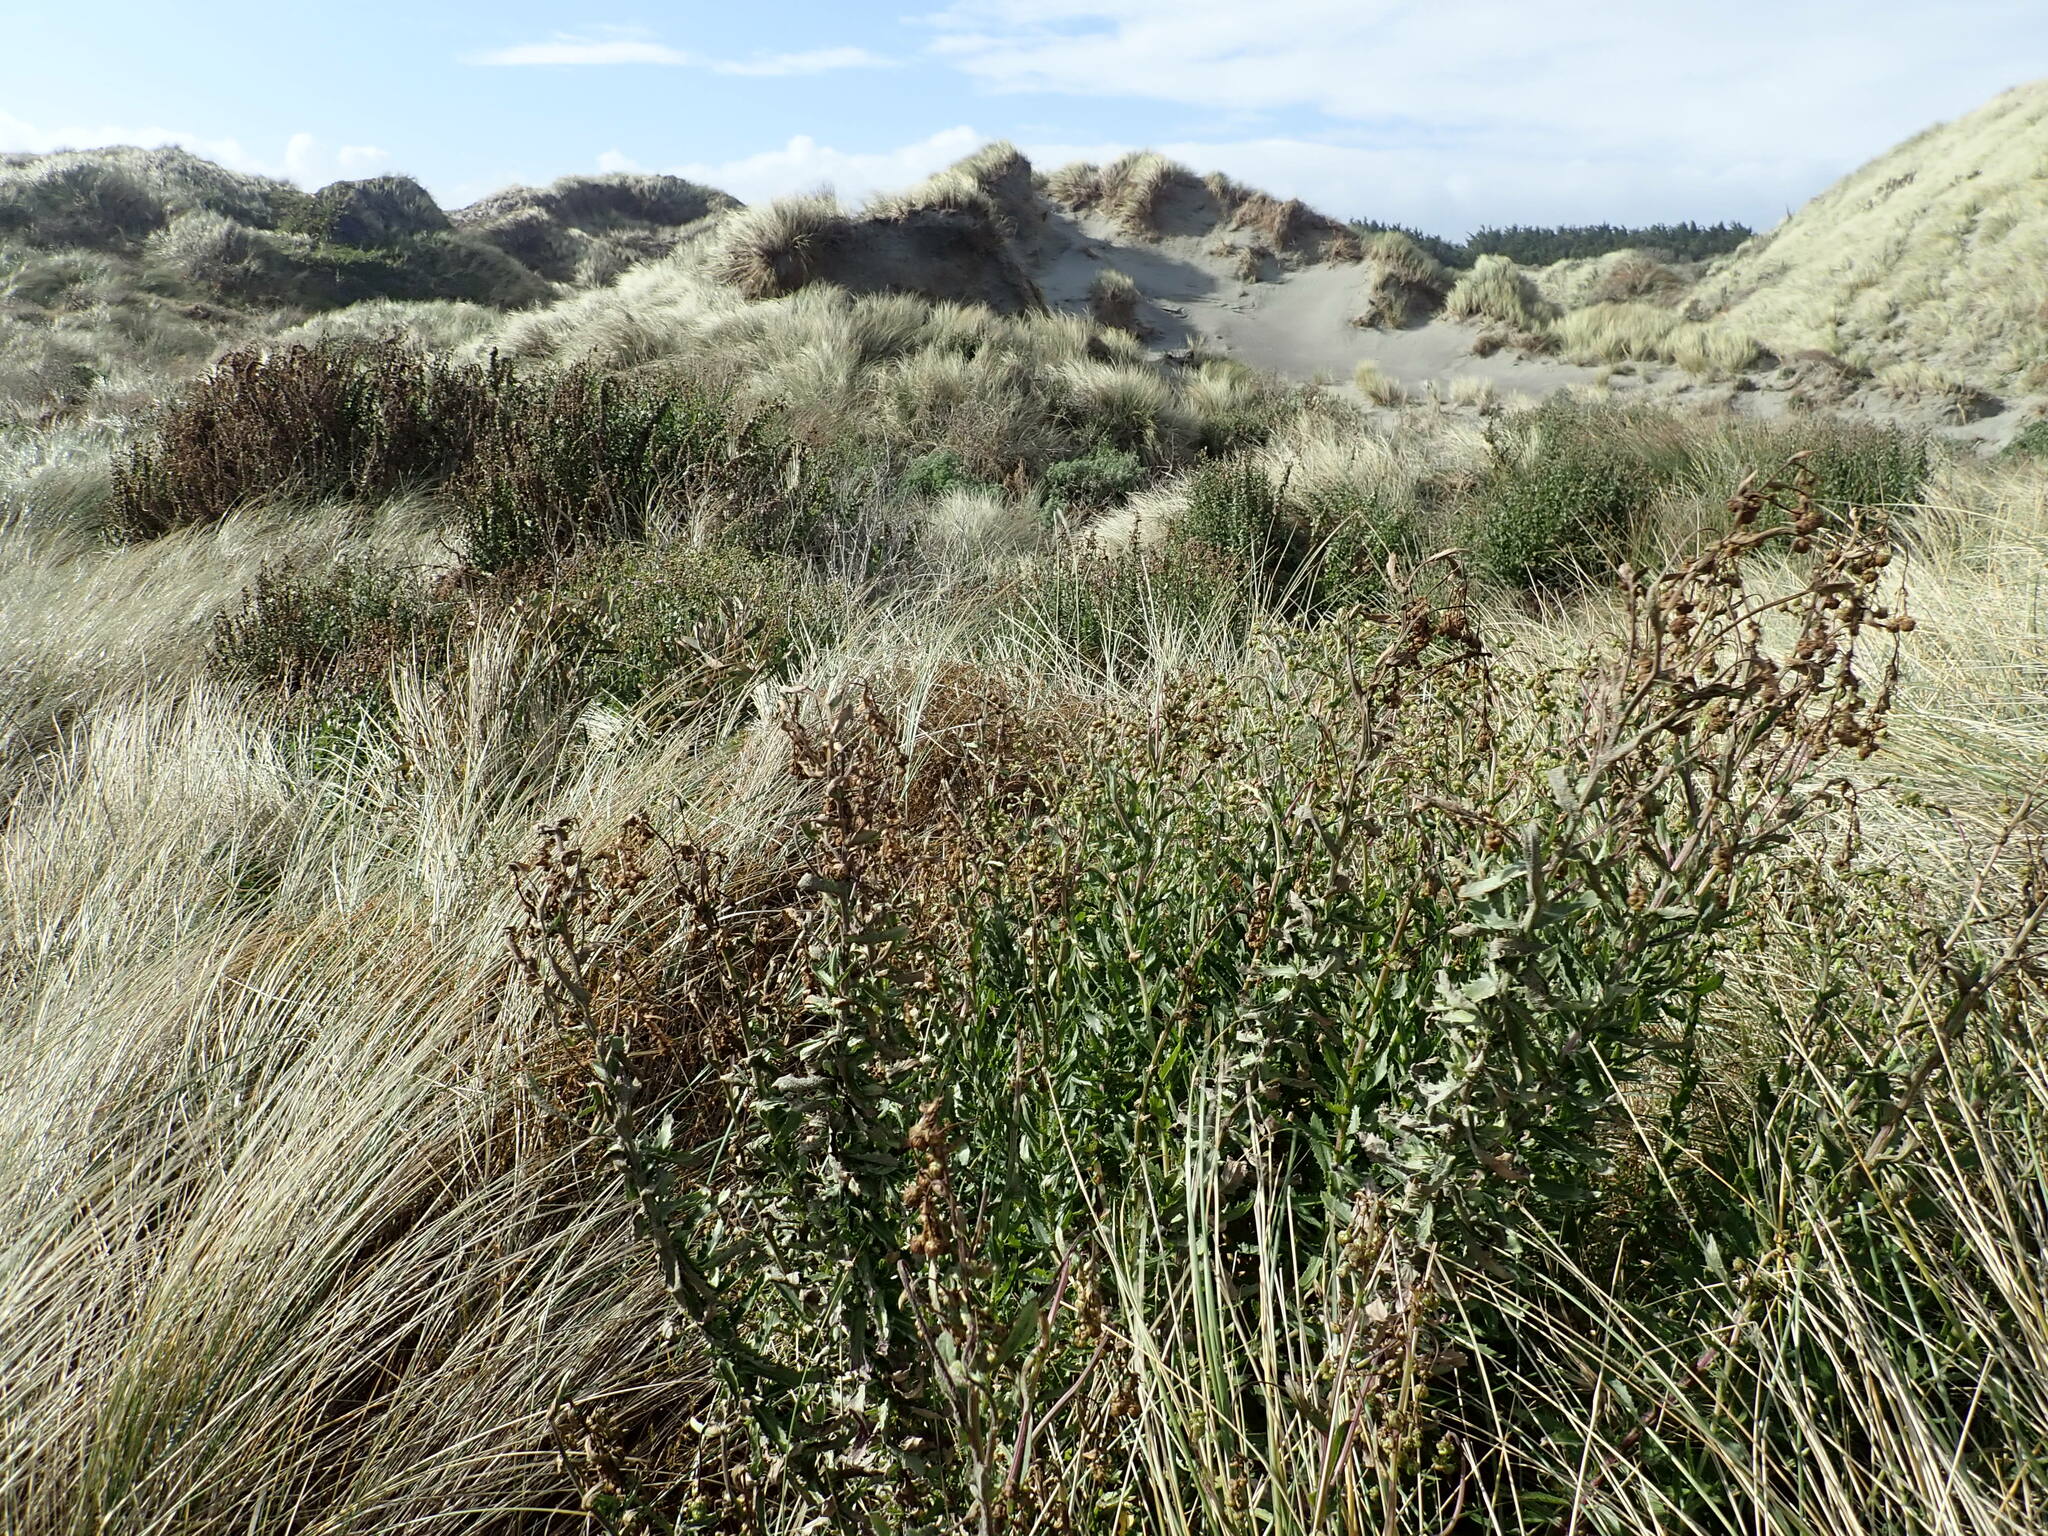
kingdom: Plantae
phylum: Tracheophyta
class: Magnoliopsida
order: Asterales
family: Asteraceae
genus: Senecio
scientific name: Senecio glastifolius
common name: Woad-leaved ragwort
